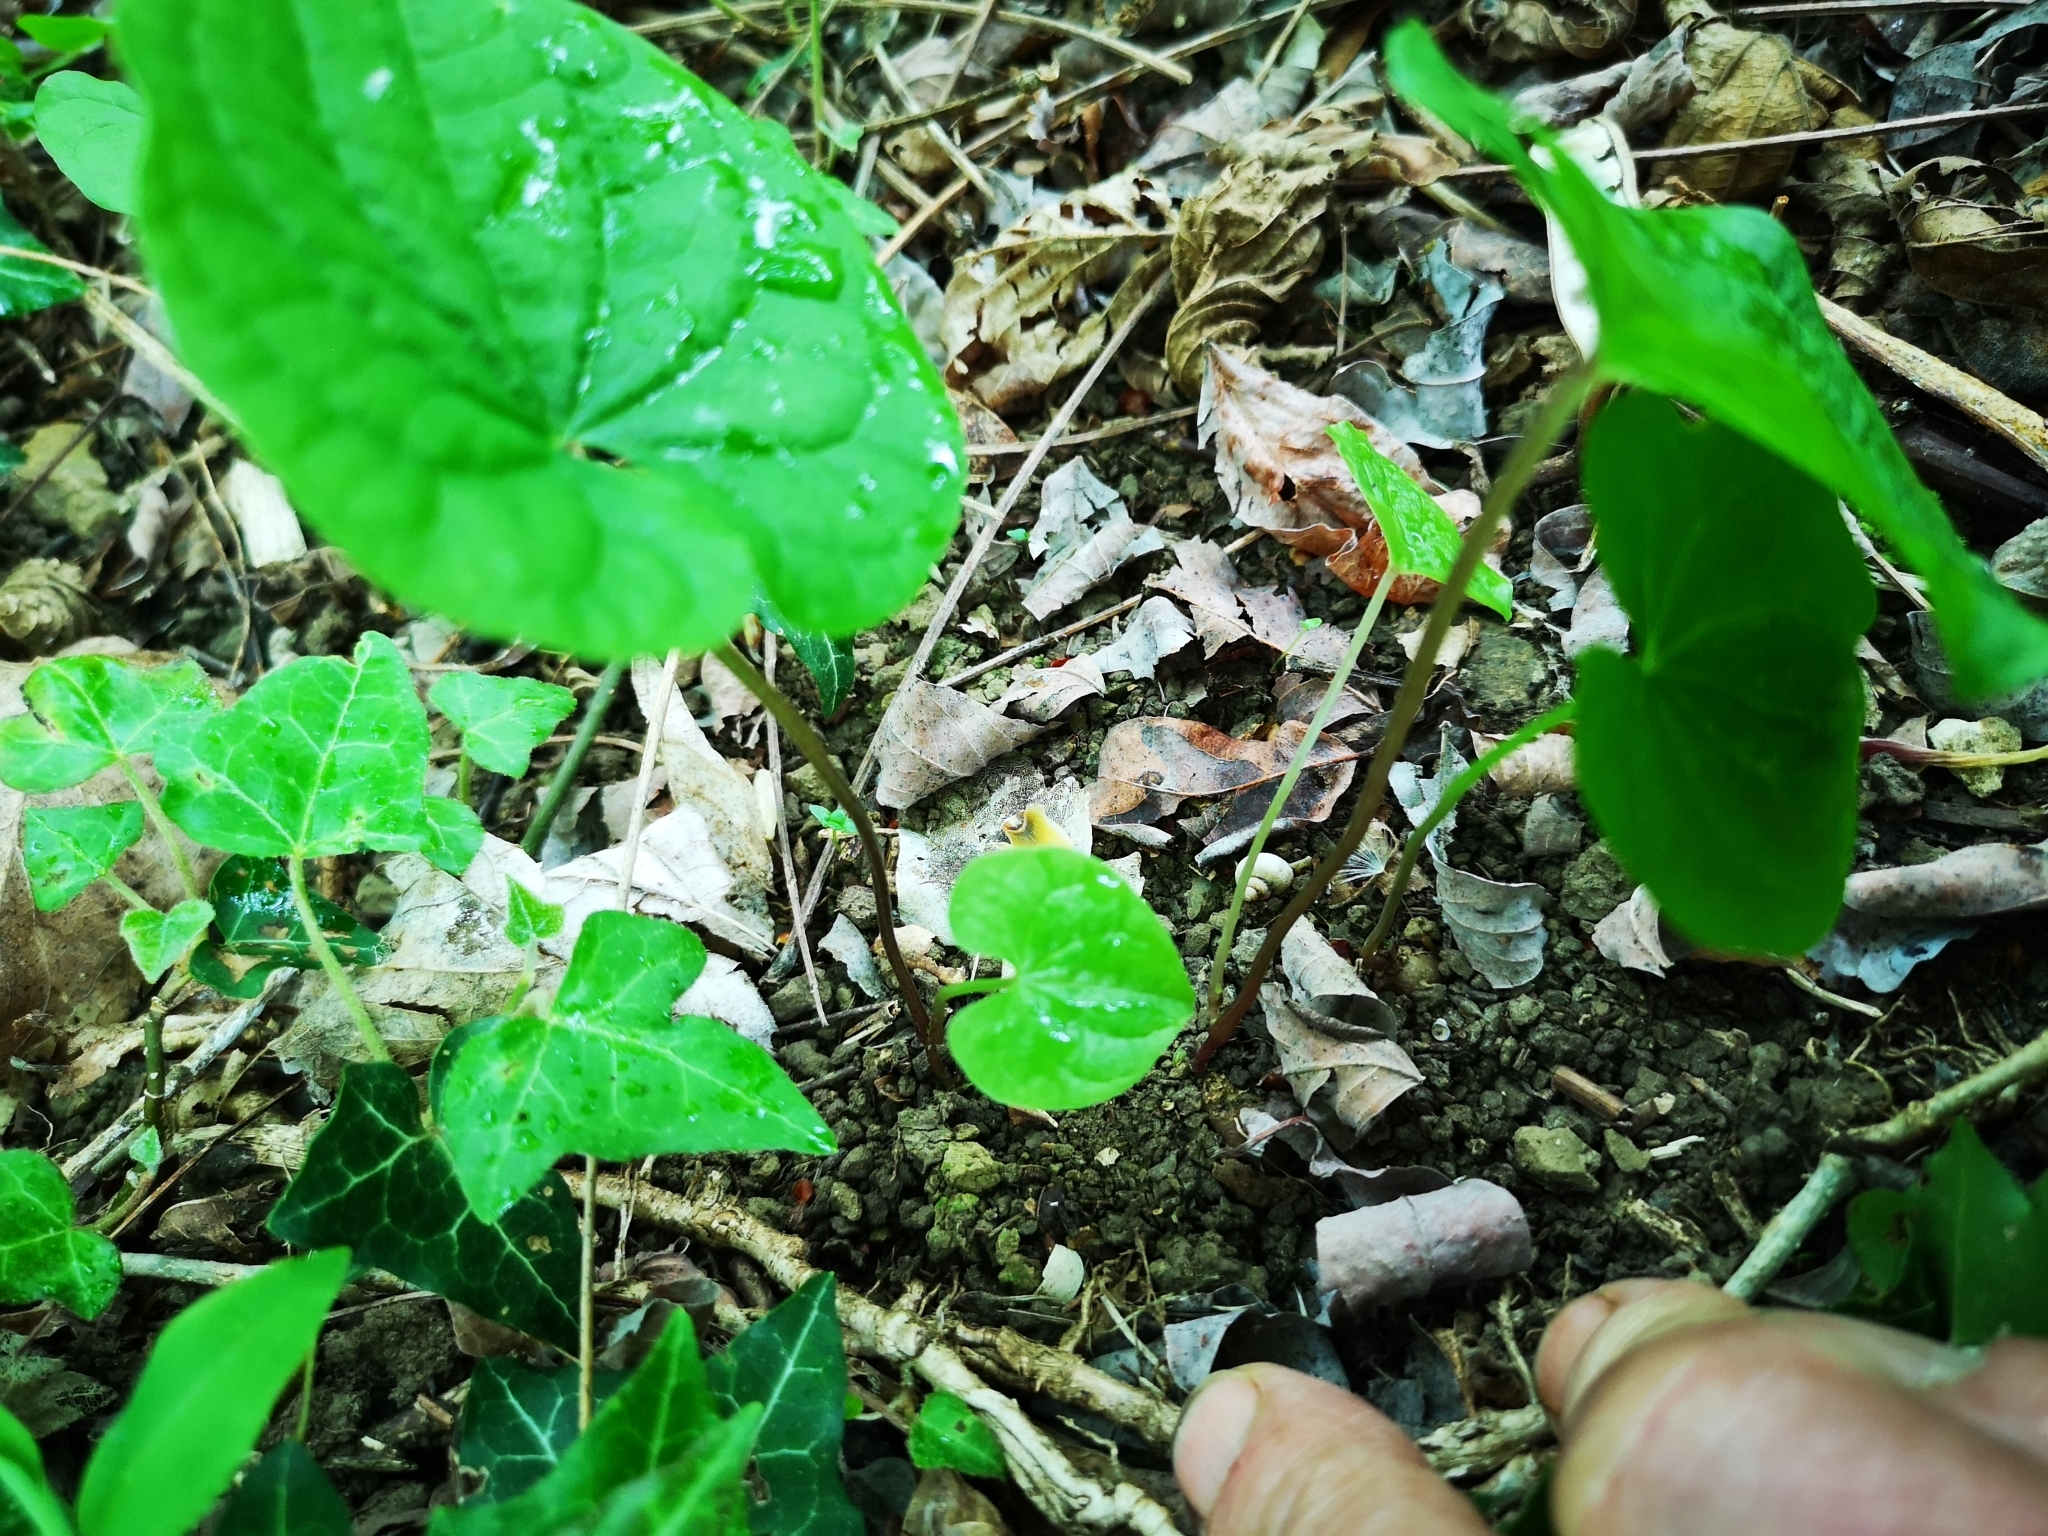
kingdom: Plantae
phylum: Tracheophyta
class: Liliopsida
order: Dioscoreales
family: Dioscoreaceae
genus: Dioscorea
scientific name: Dioscorea communis
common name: Black-bindweed
